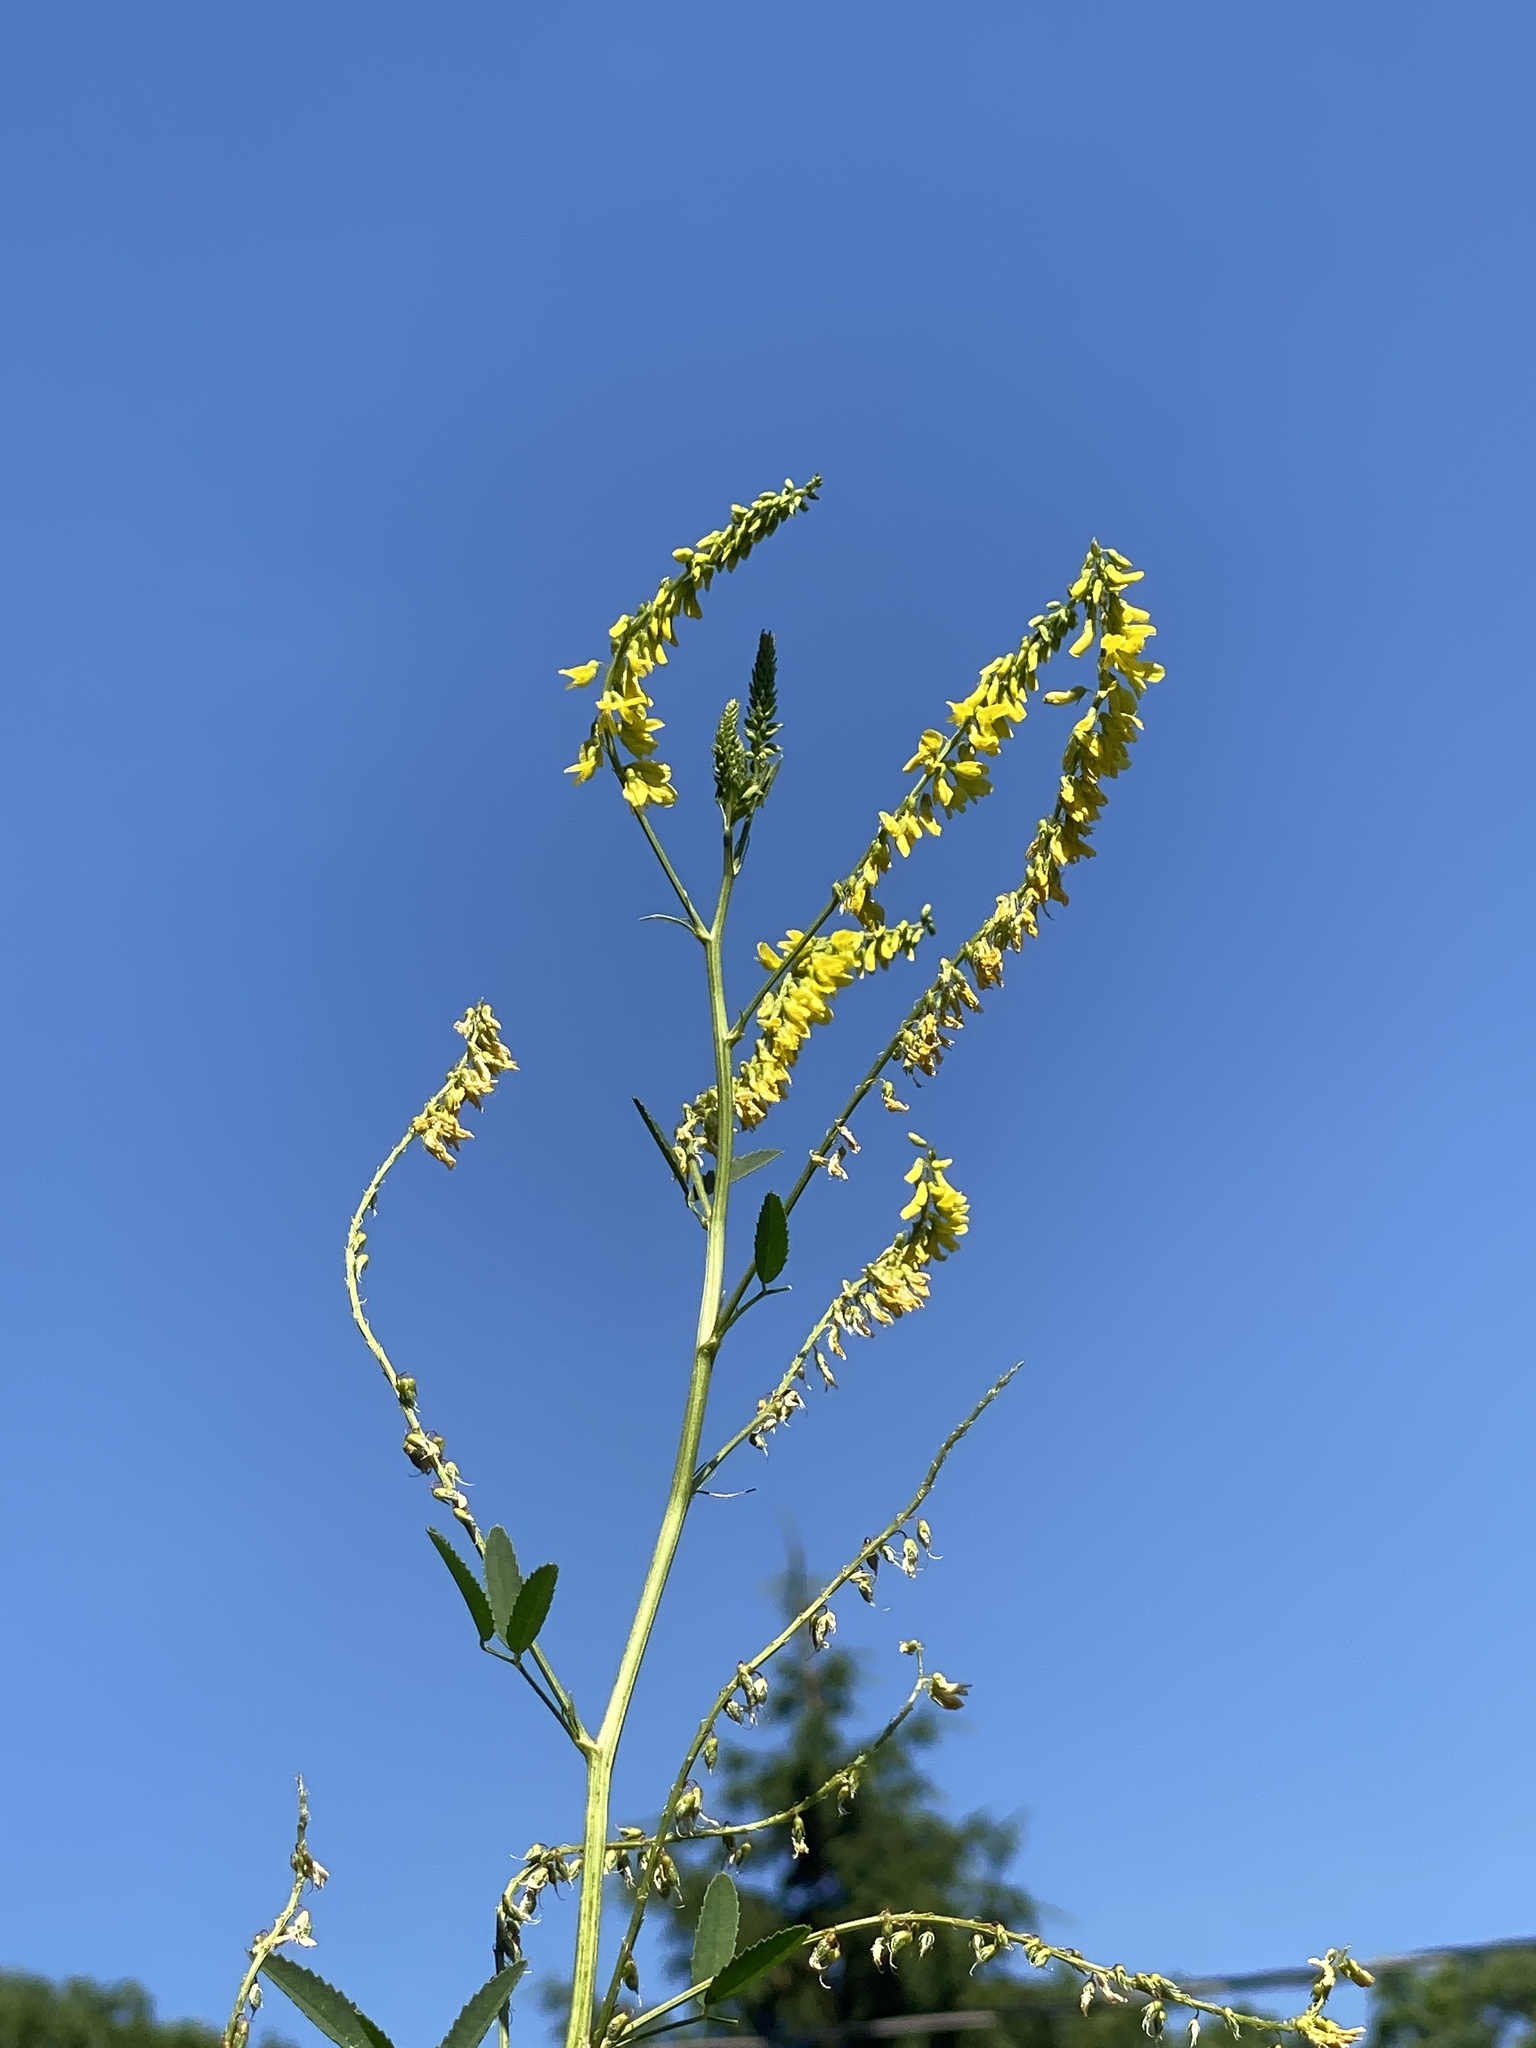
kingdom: Plantae
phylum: Tracheophyta
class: Magnoliopsida
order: Fabales
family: Fabaceae
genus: Melilotus
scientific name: Melilotus officinalis
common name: Sweetclover
